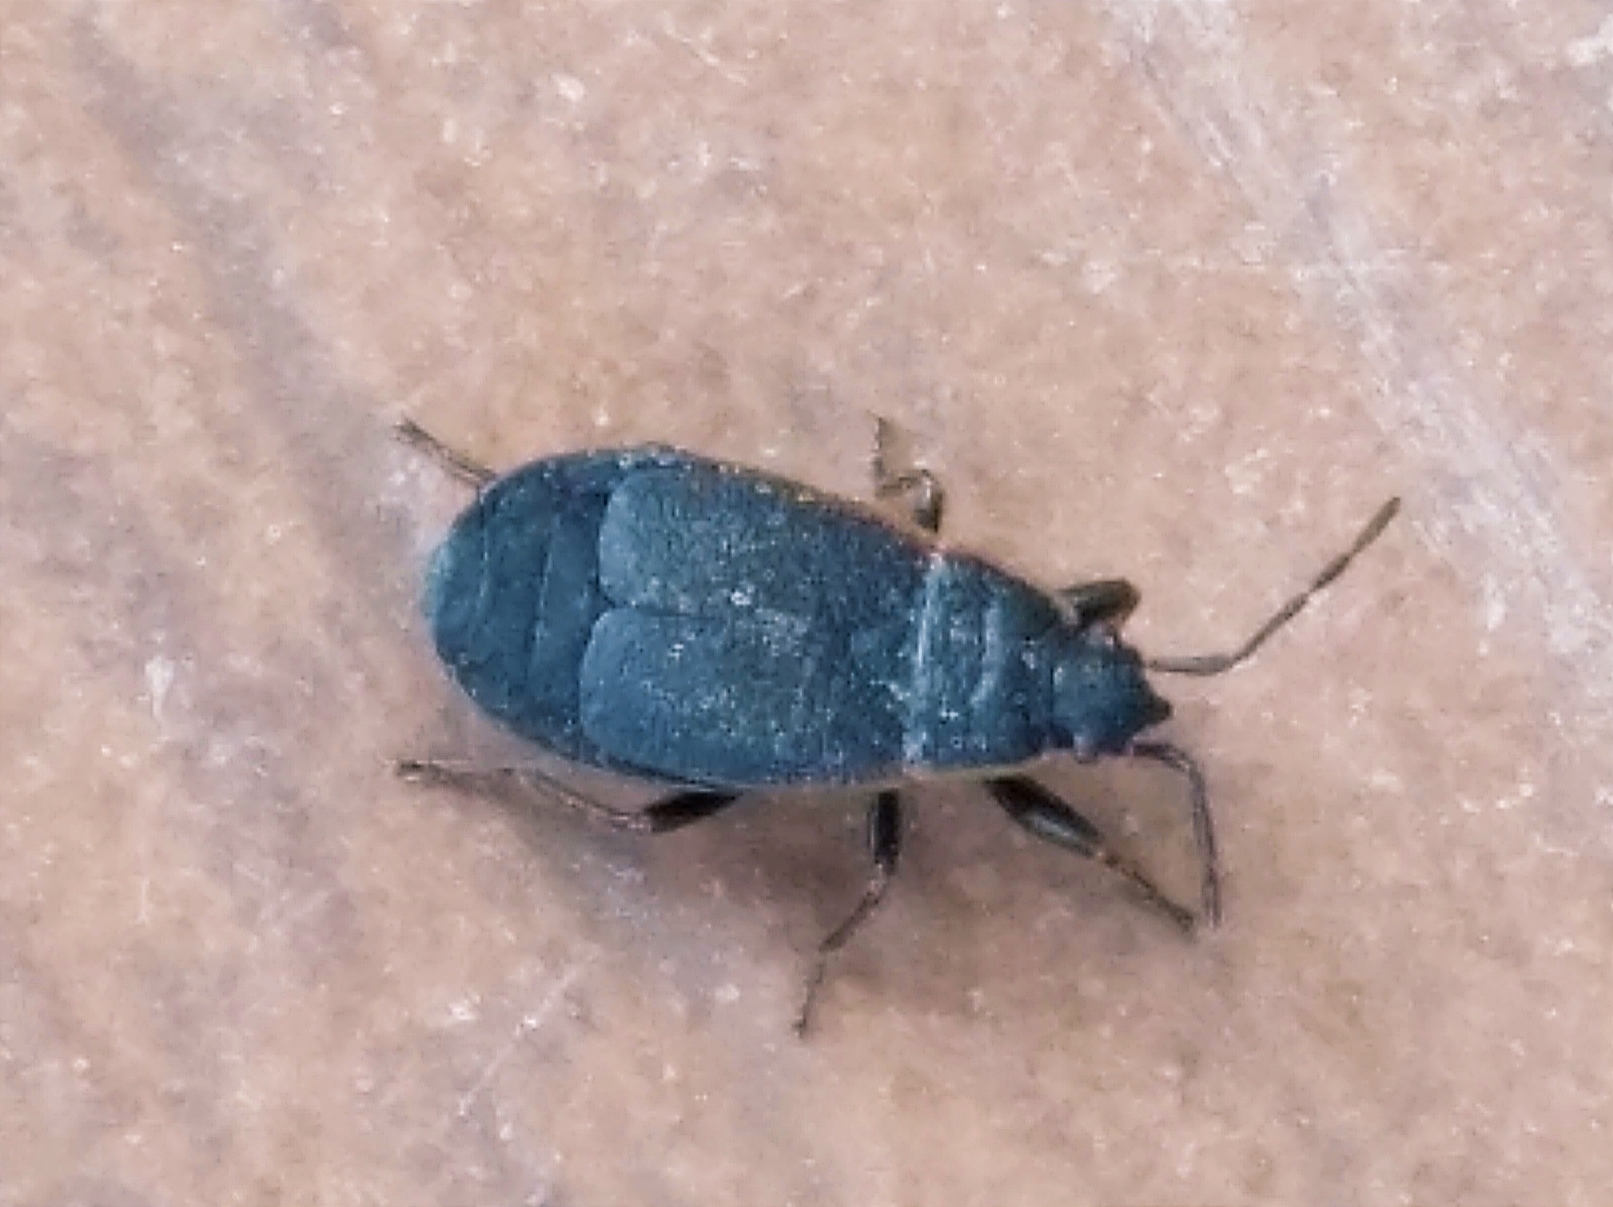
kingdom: Animalia
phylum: Arthropoda
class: Insecta
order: Hemiptera
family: Pyrrhocoridae
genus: Pyrrhocoris
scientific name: Pyrrhocoris marginatus
